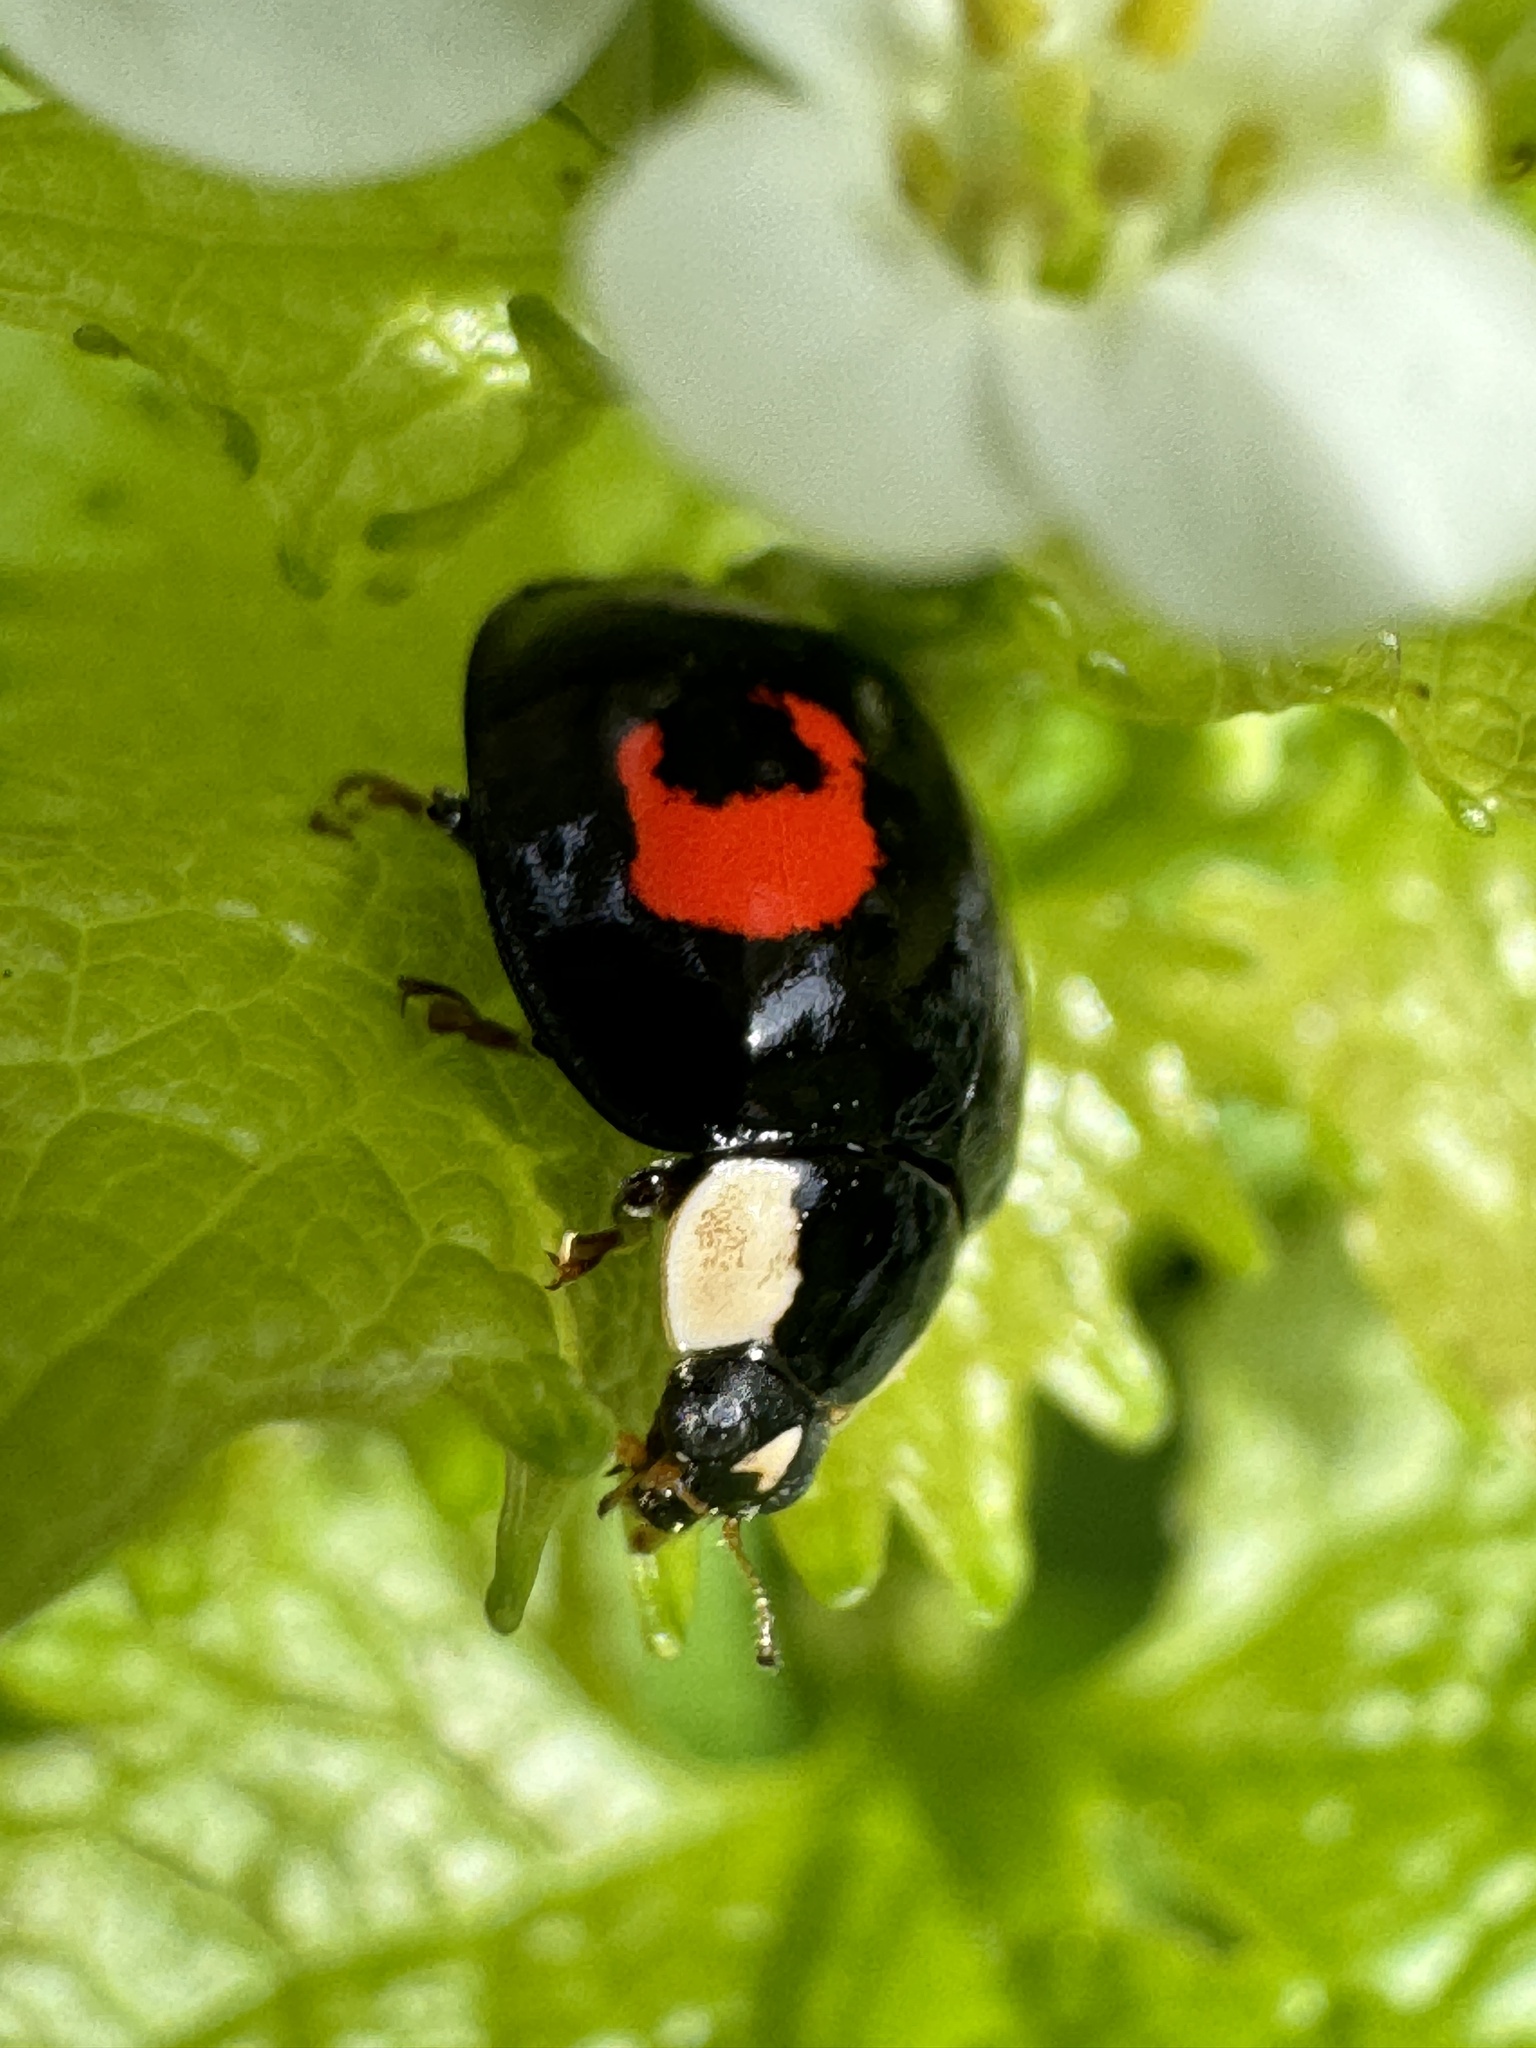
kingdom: Animalia
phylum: Arthropoda
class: Insecta
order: Coleoptera
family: Coccinellidae
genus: Harmonia
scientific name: Harmonia axyridis
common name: Harlequin ladybird
